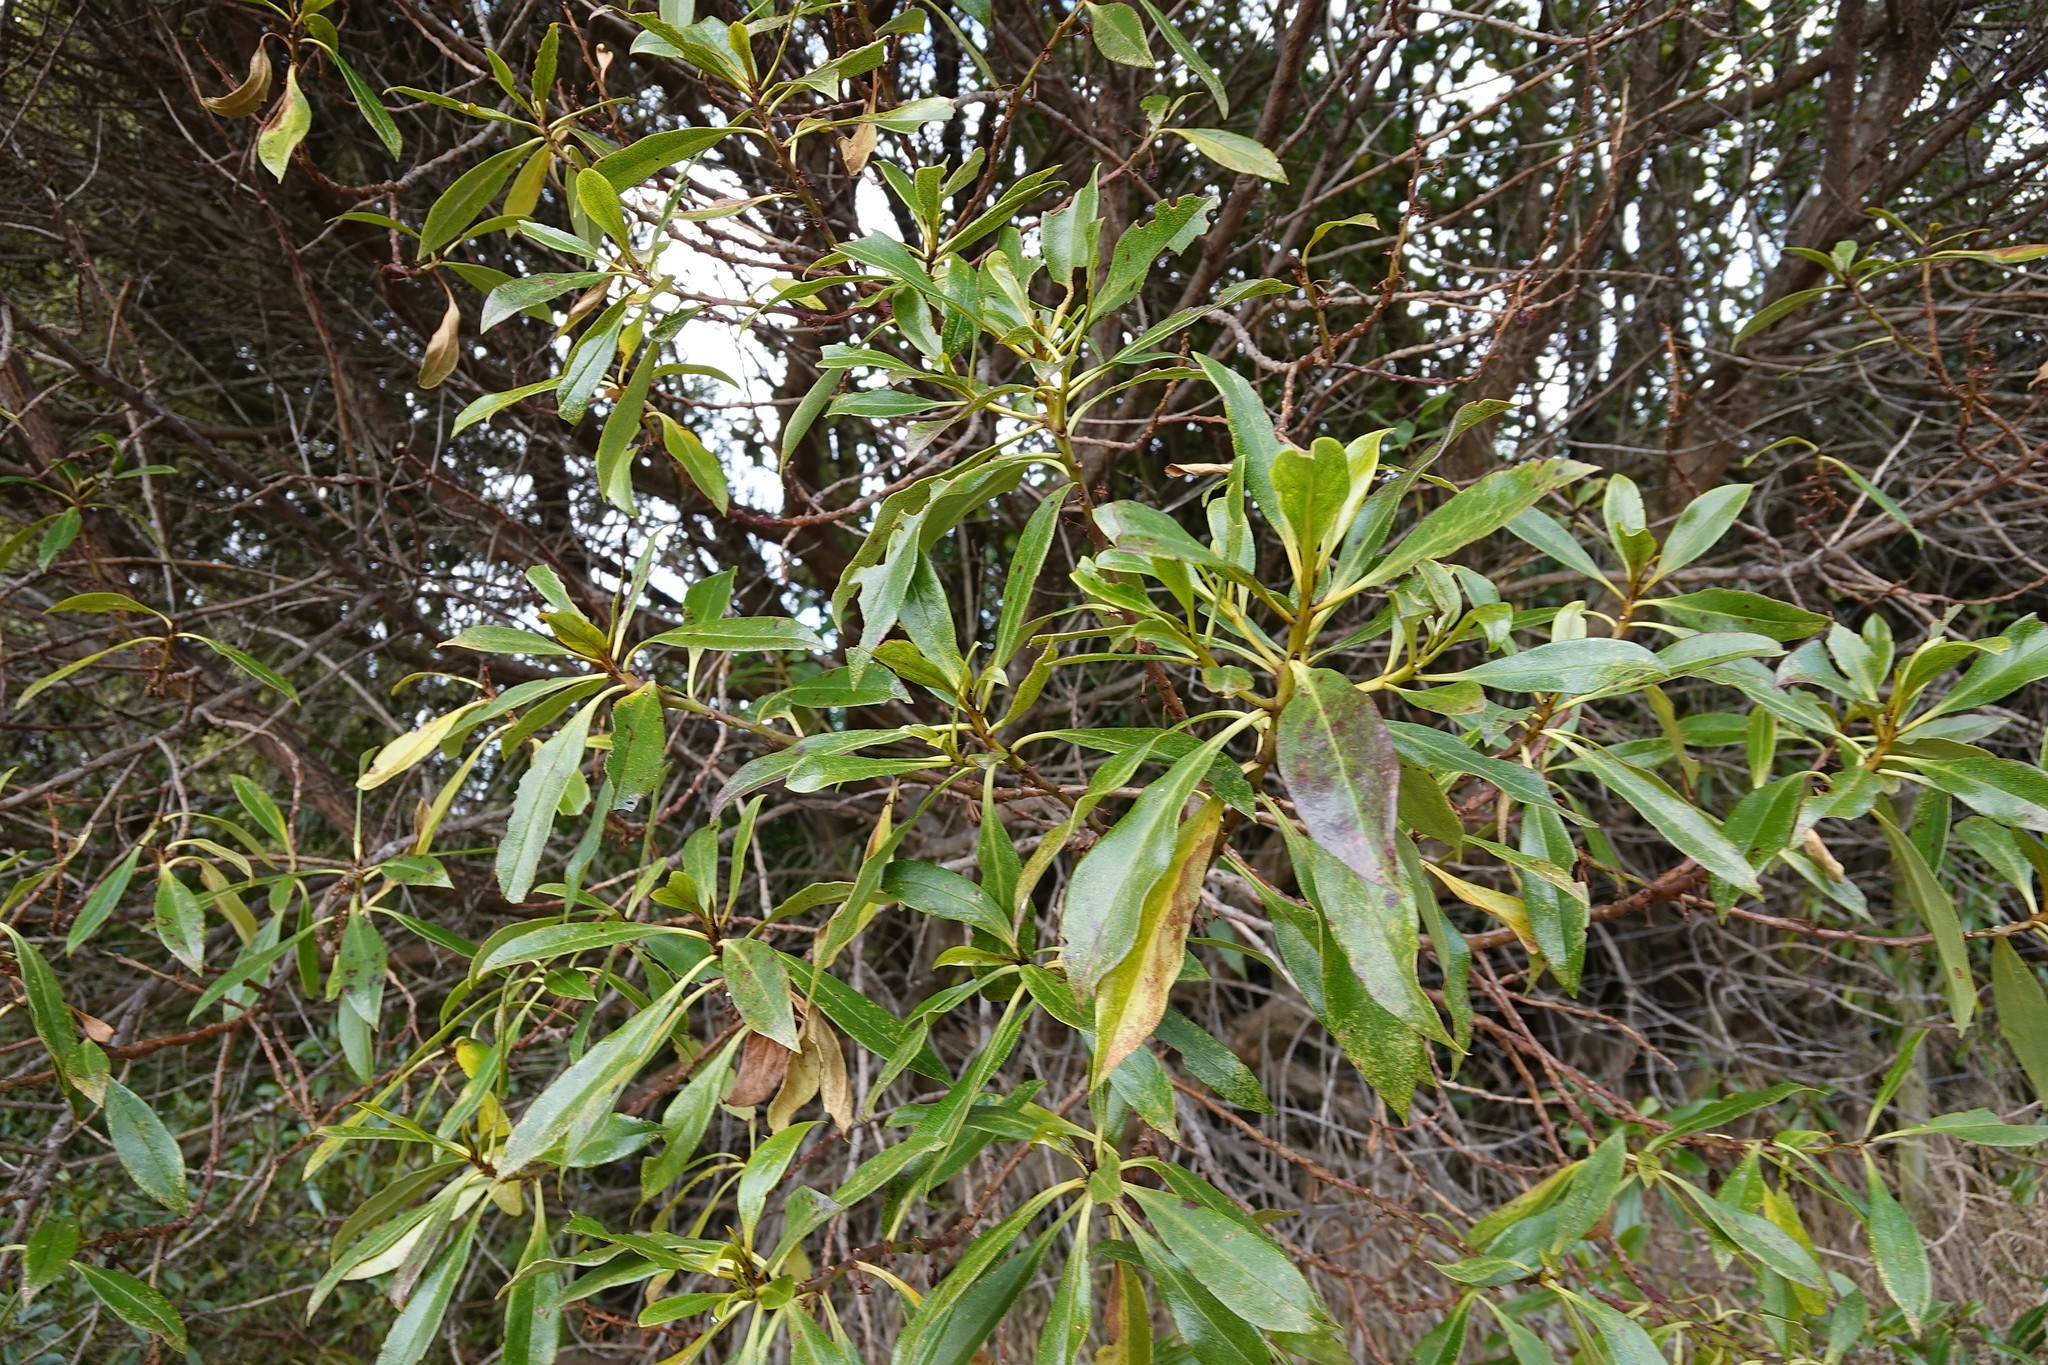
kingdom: Plantae
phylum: Tracheophyta
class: Magnoliopsida
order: Lamiales
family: Scrophulariaceae
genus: Myoporum
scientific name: Myoporum laetum
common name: Ngaio tree
